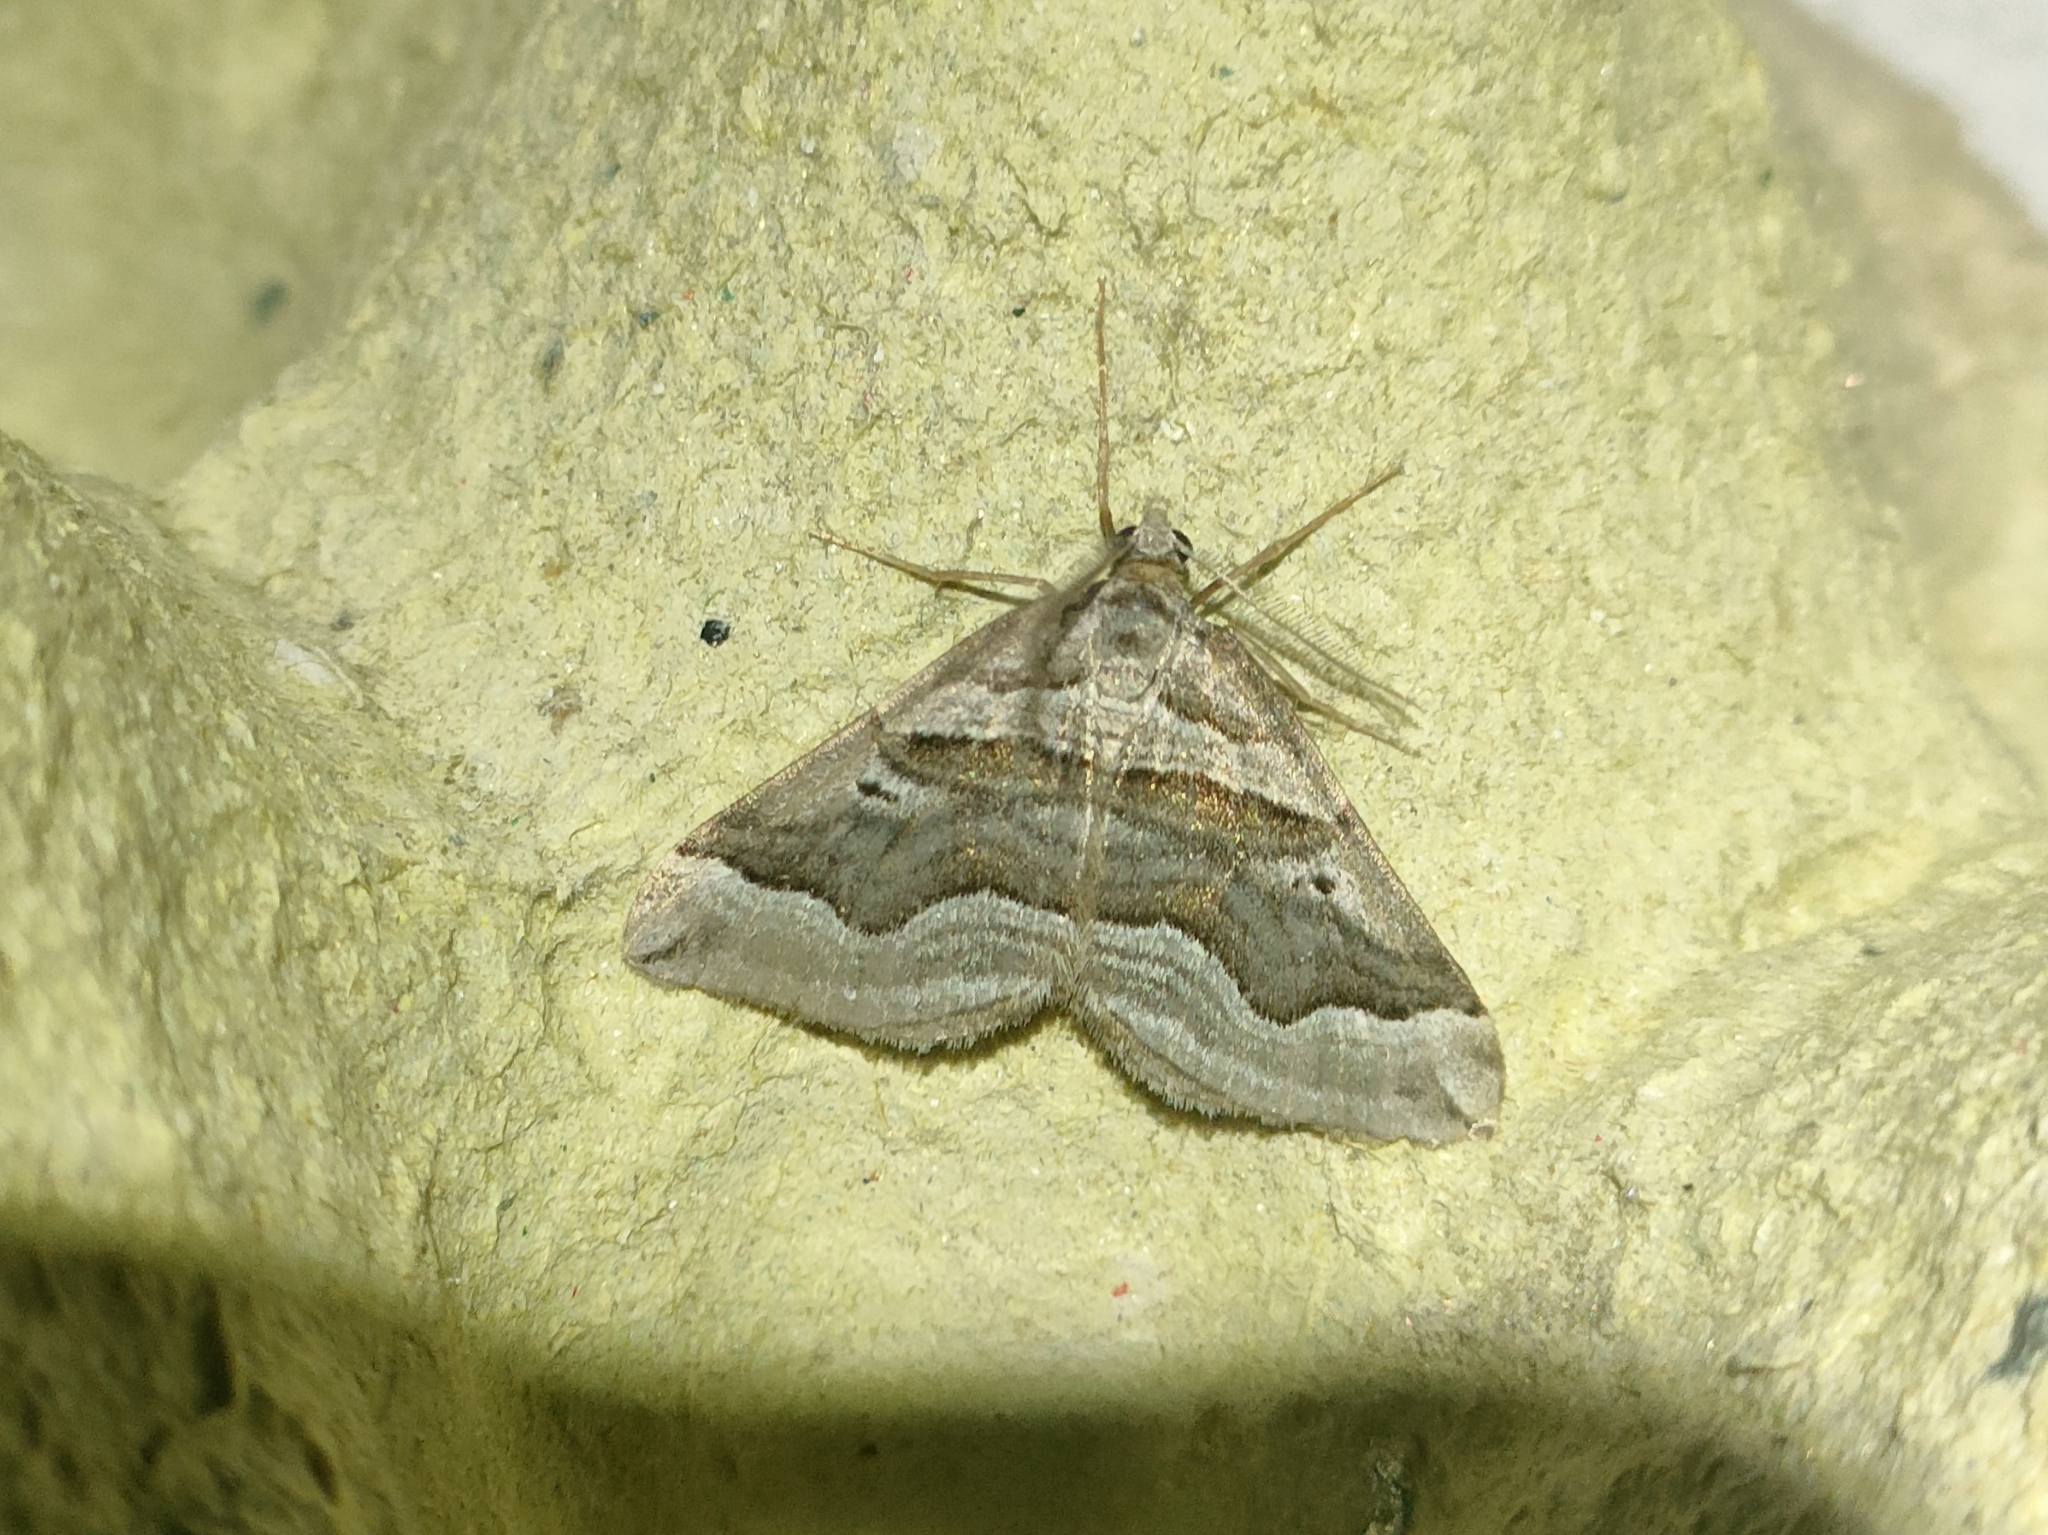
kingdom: Animalia
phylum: Arthropoda
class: Insecta
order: Lepidoptera
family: Geometridae
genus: Scotopteryx
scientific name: Scotopteryx peribolata
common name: Spanish carpet
